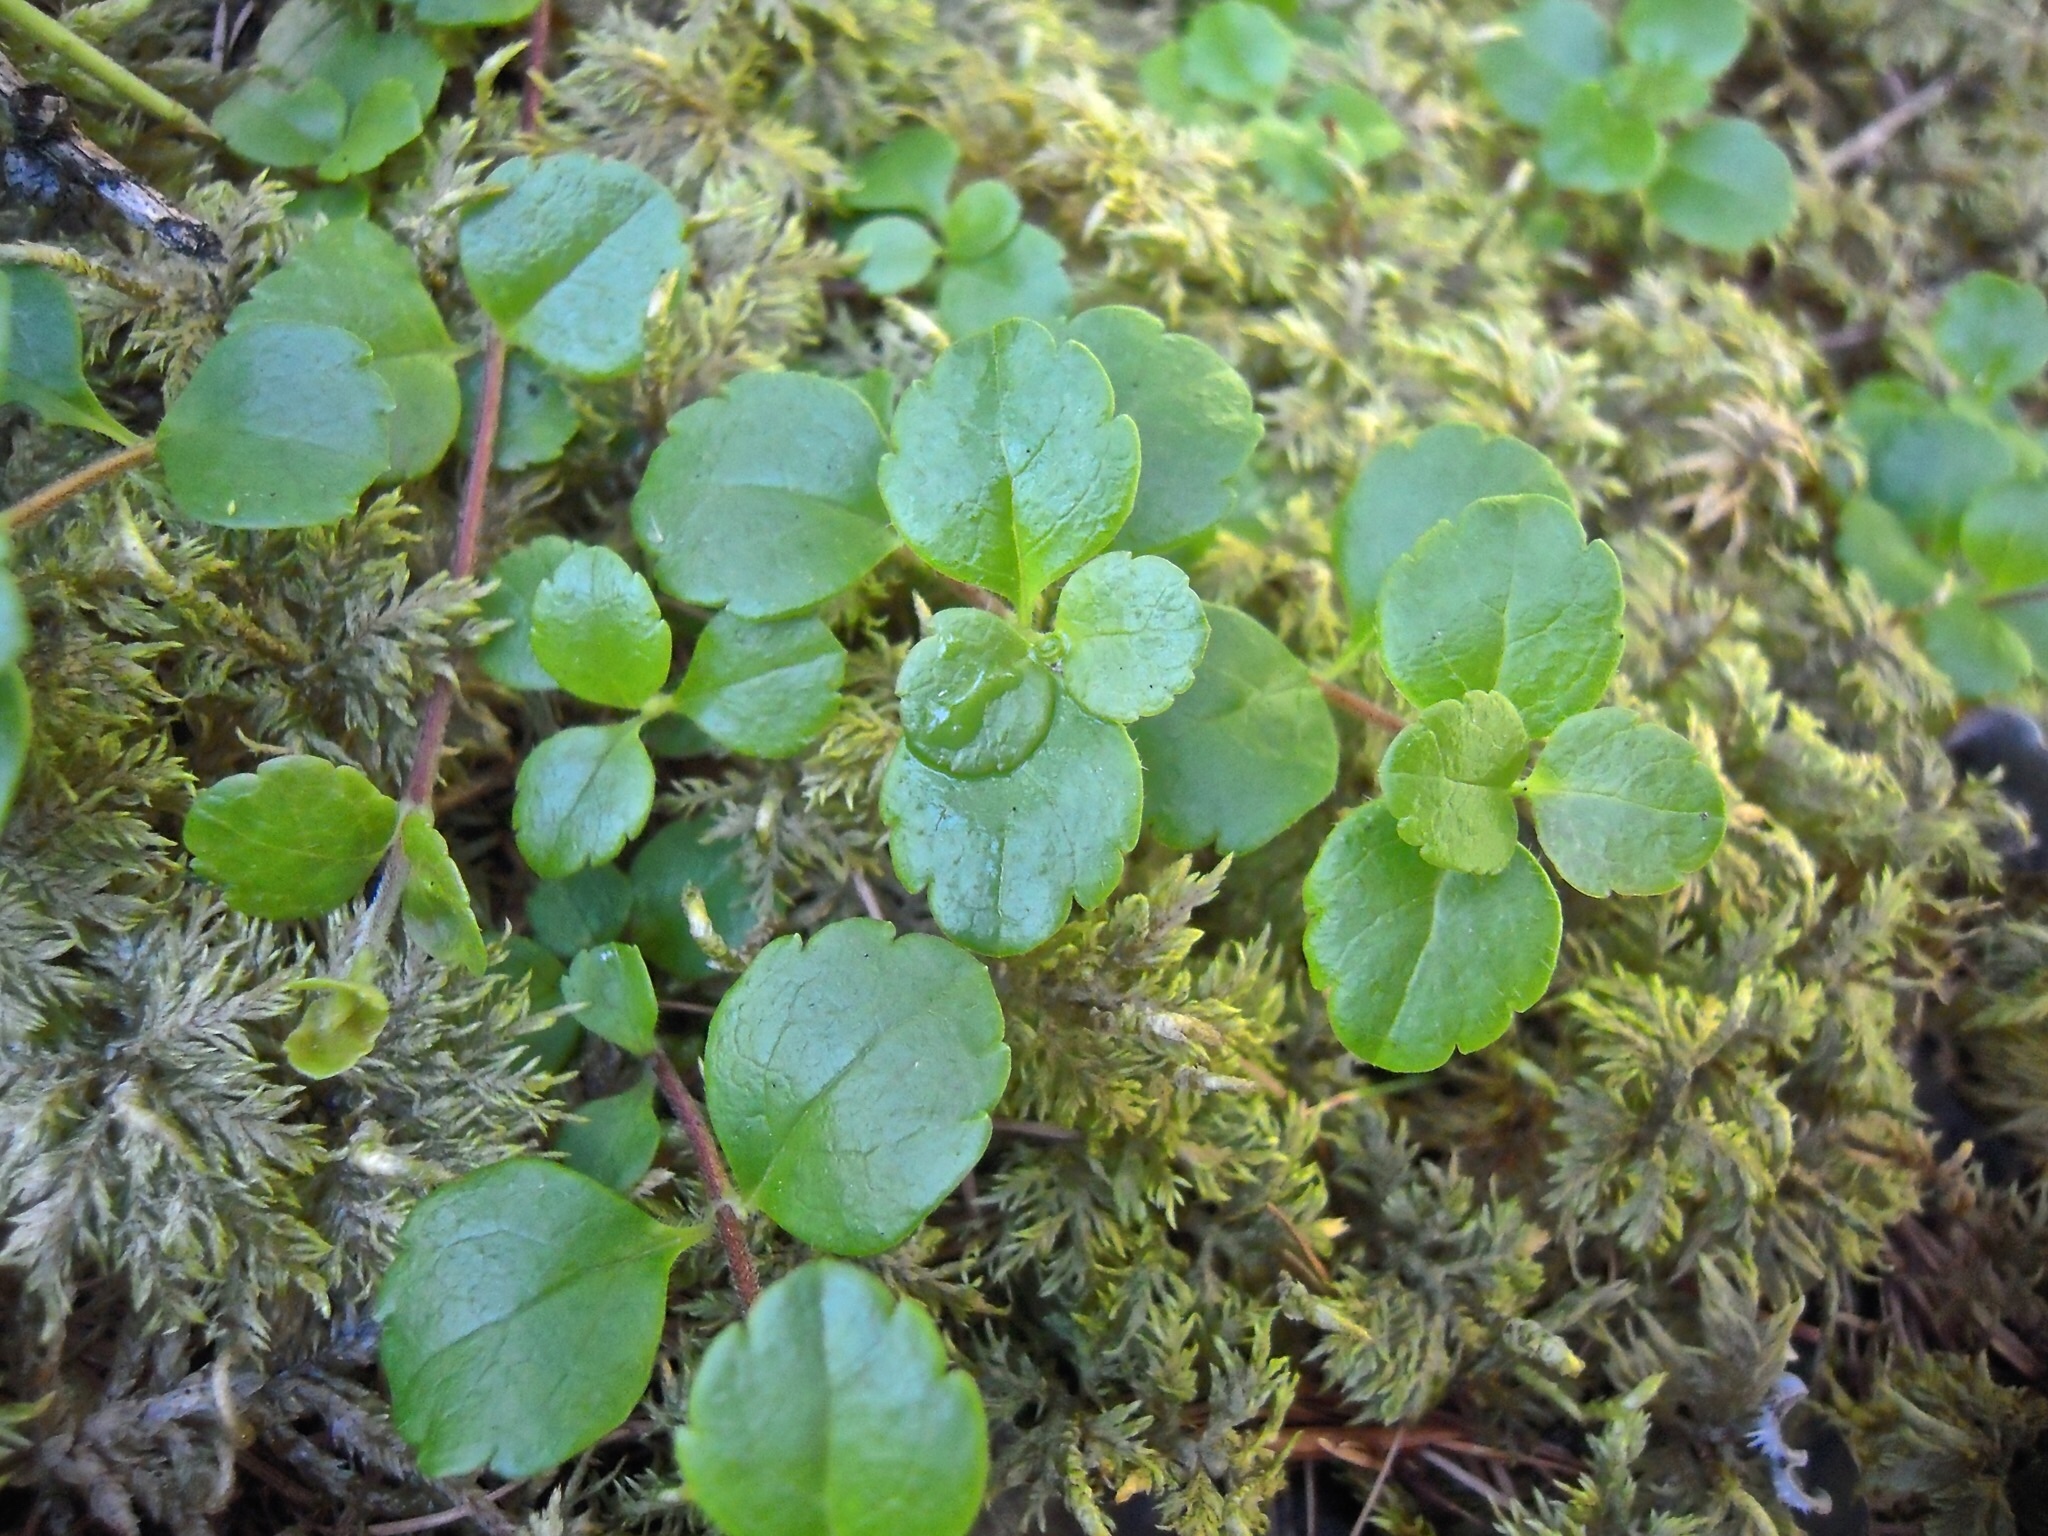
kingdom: Plantae
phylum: Tracheophyta
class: Magnoliopsida
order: Dipsacales
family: Caprifoliaceae
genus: Linnaea
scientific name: Linnaea borealis
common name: Twinflower
